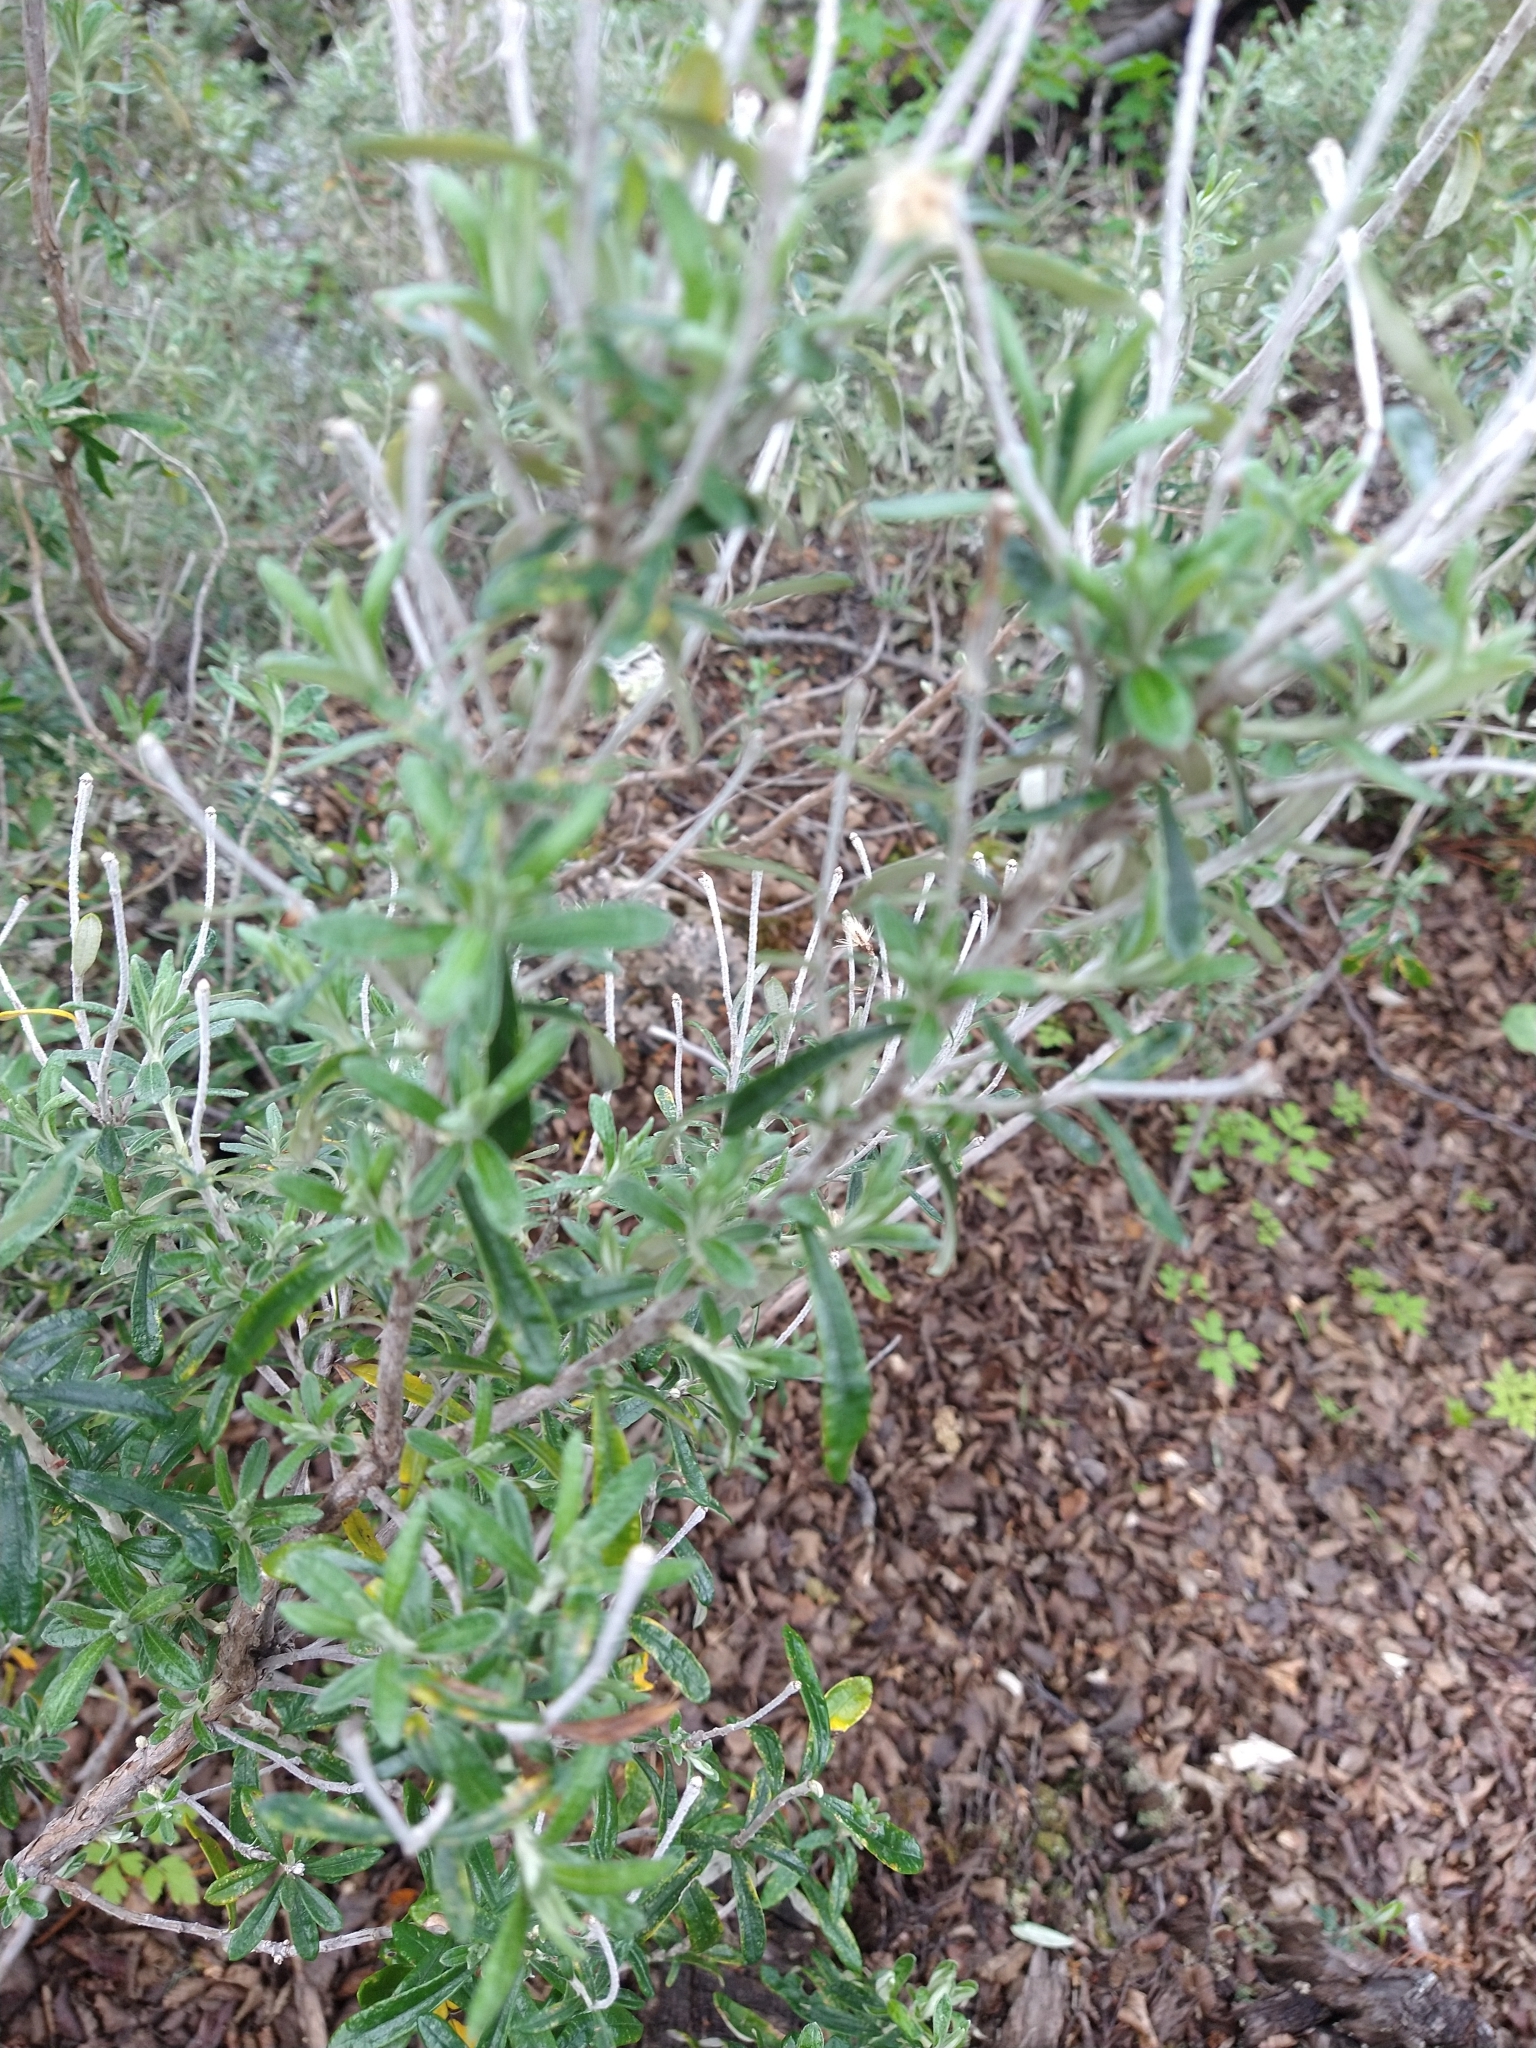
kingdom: Plantae
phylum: Tracheophyta
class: Magnoliopsida
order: Asterales
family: Asteraceae
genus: Chiliotrichum
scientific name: Chiliotrichum diffusum
